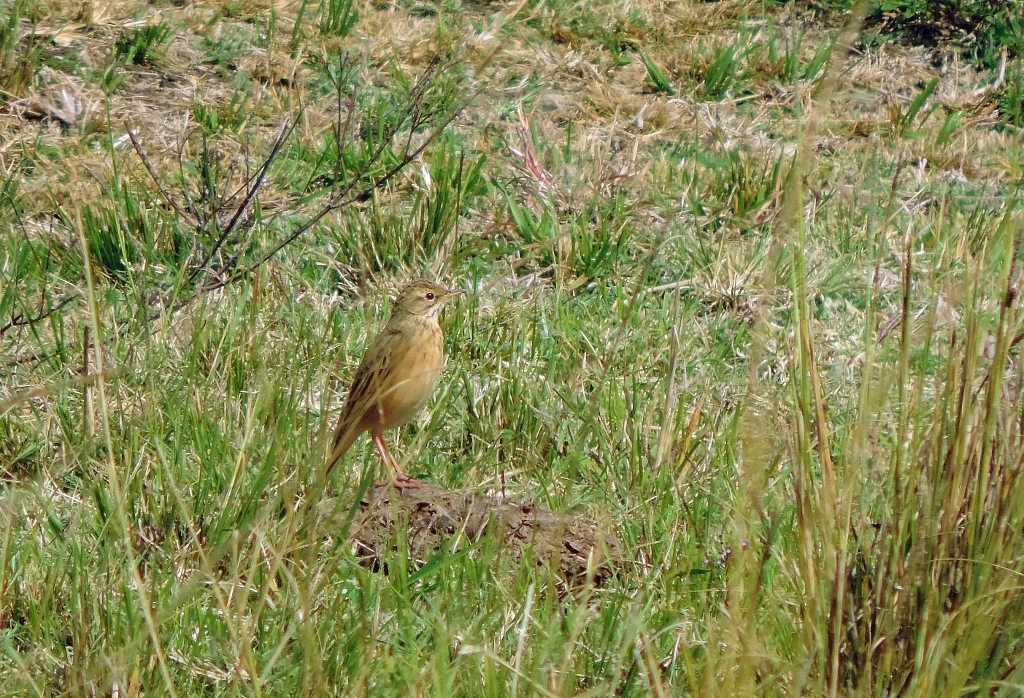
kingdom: Animalia
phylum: Chordata
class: Aves
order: Passeriformes
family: Motacillidae
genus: Anthus
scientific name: Anthus cinnamomeus
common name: African pipit
